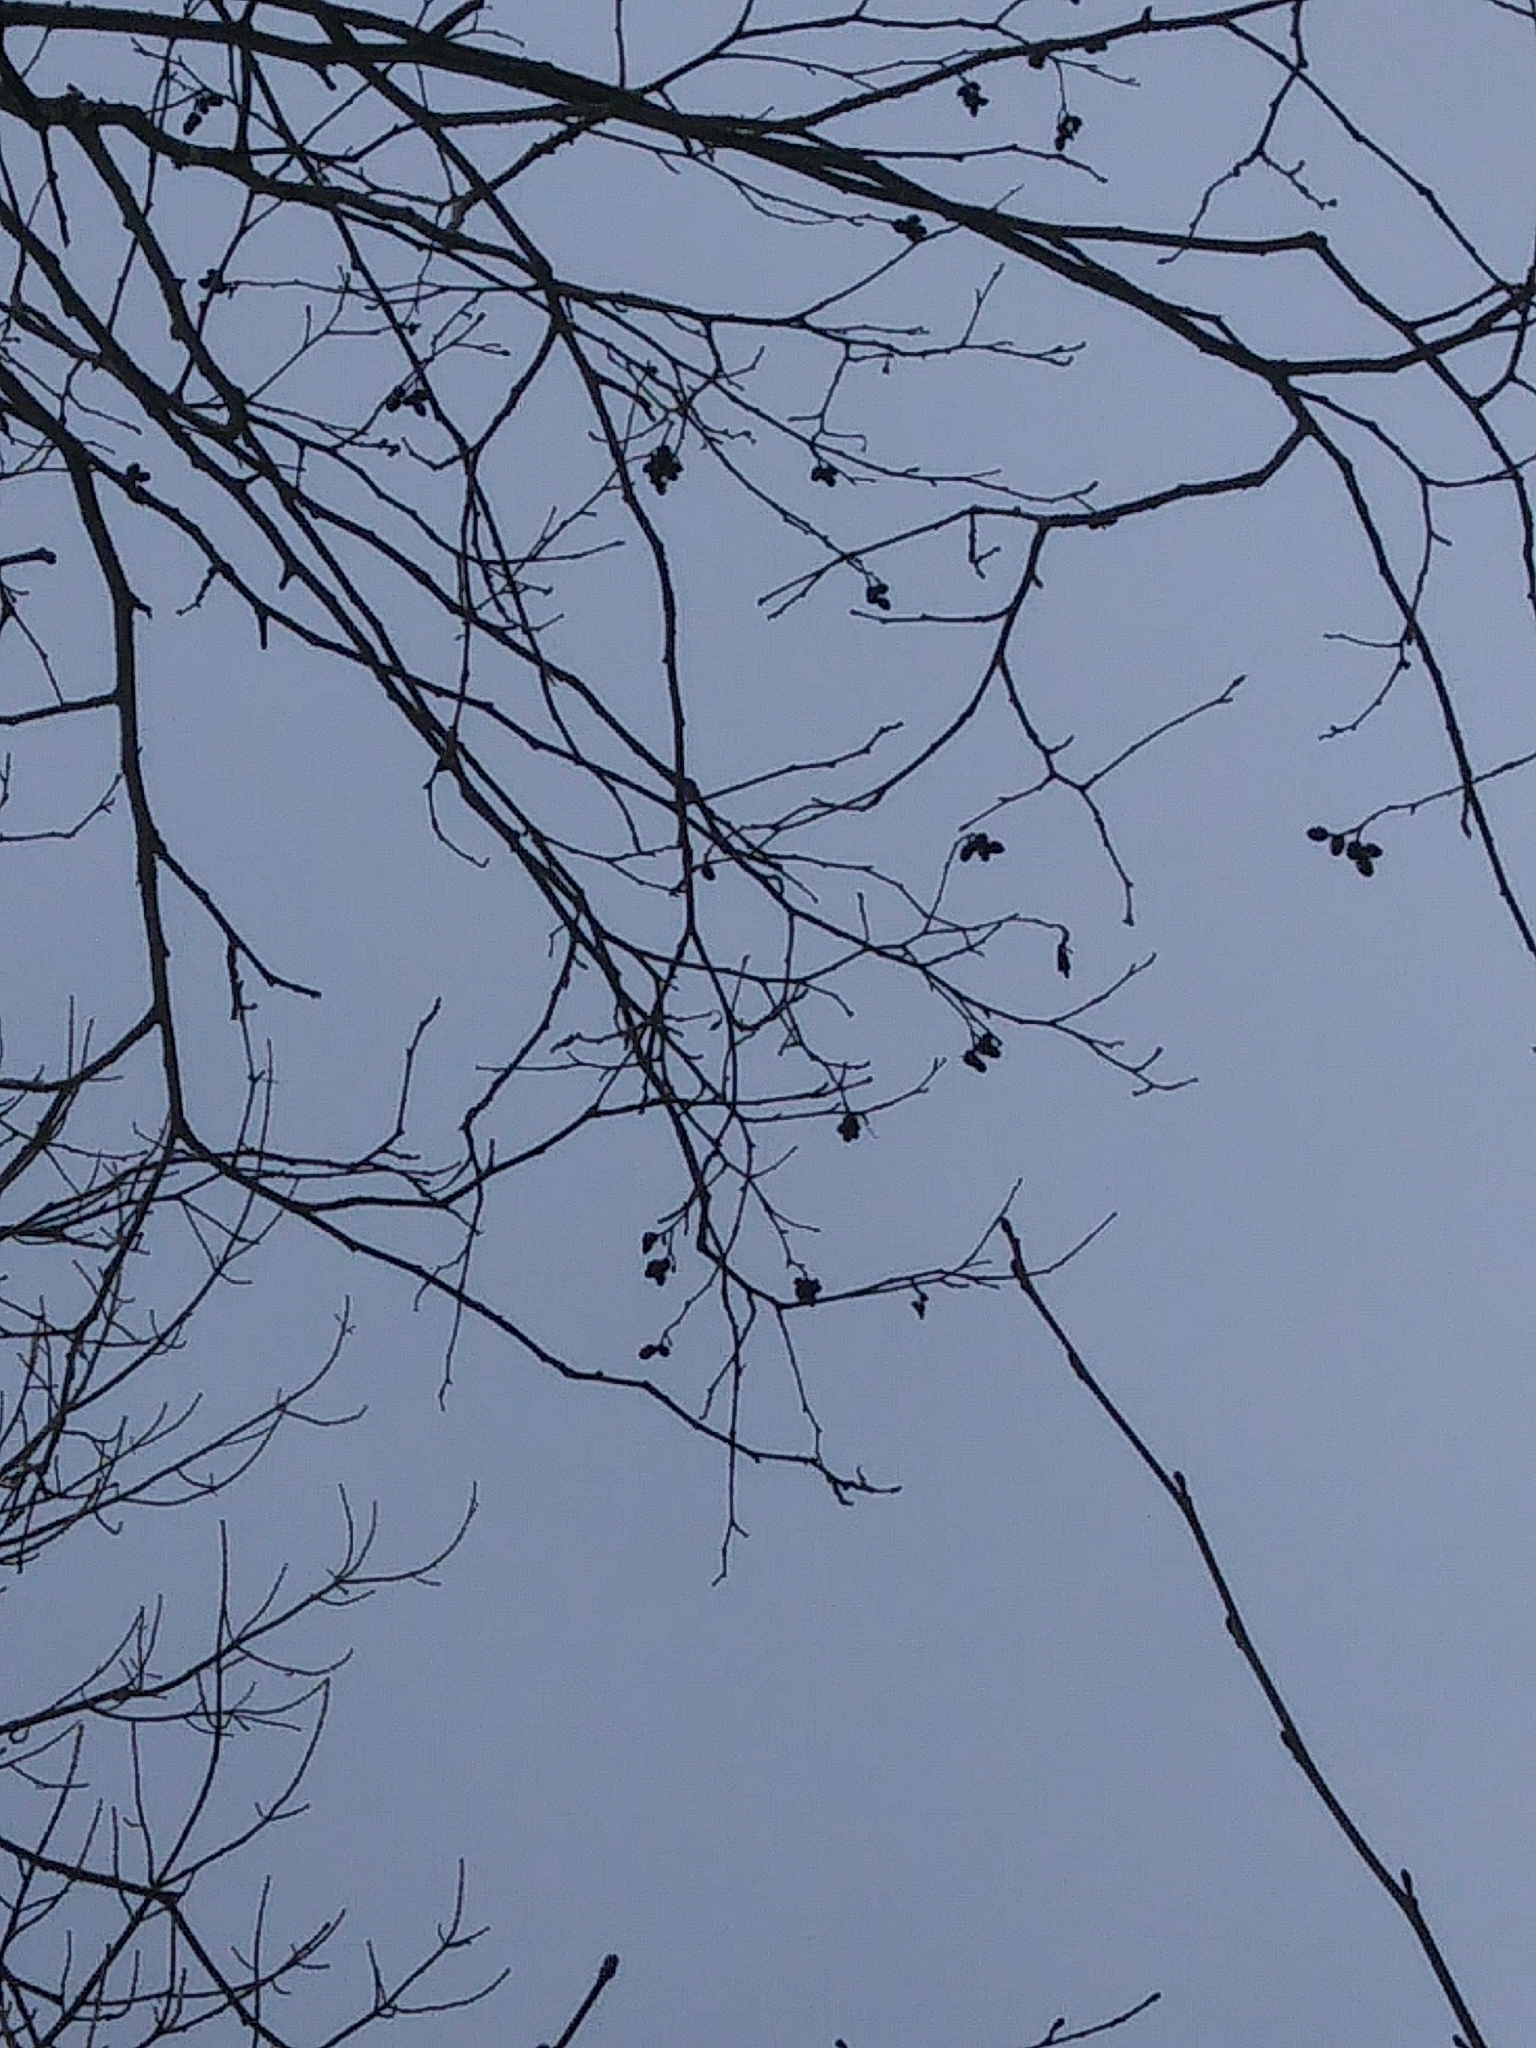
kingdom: Plantae
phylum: Tracheophyta
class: Magnoliopsida
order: Fagales
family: Betulaceae
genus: Alnus
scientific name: Alnus incana
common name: Grey alder
